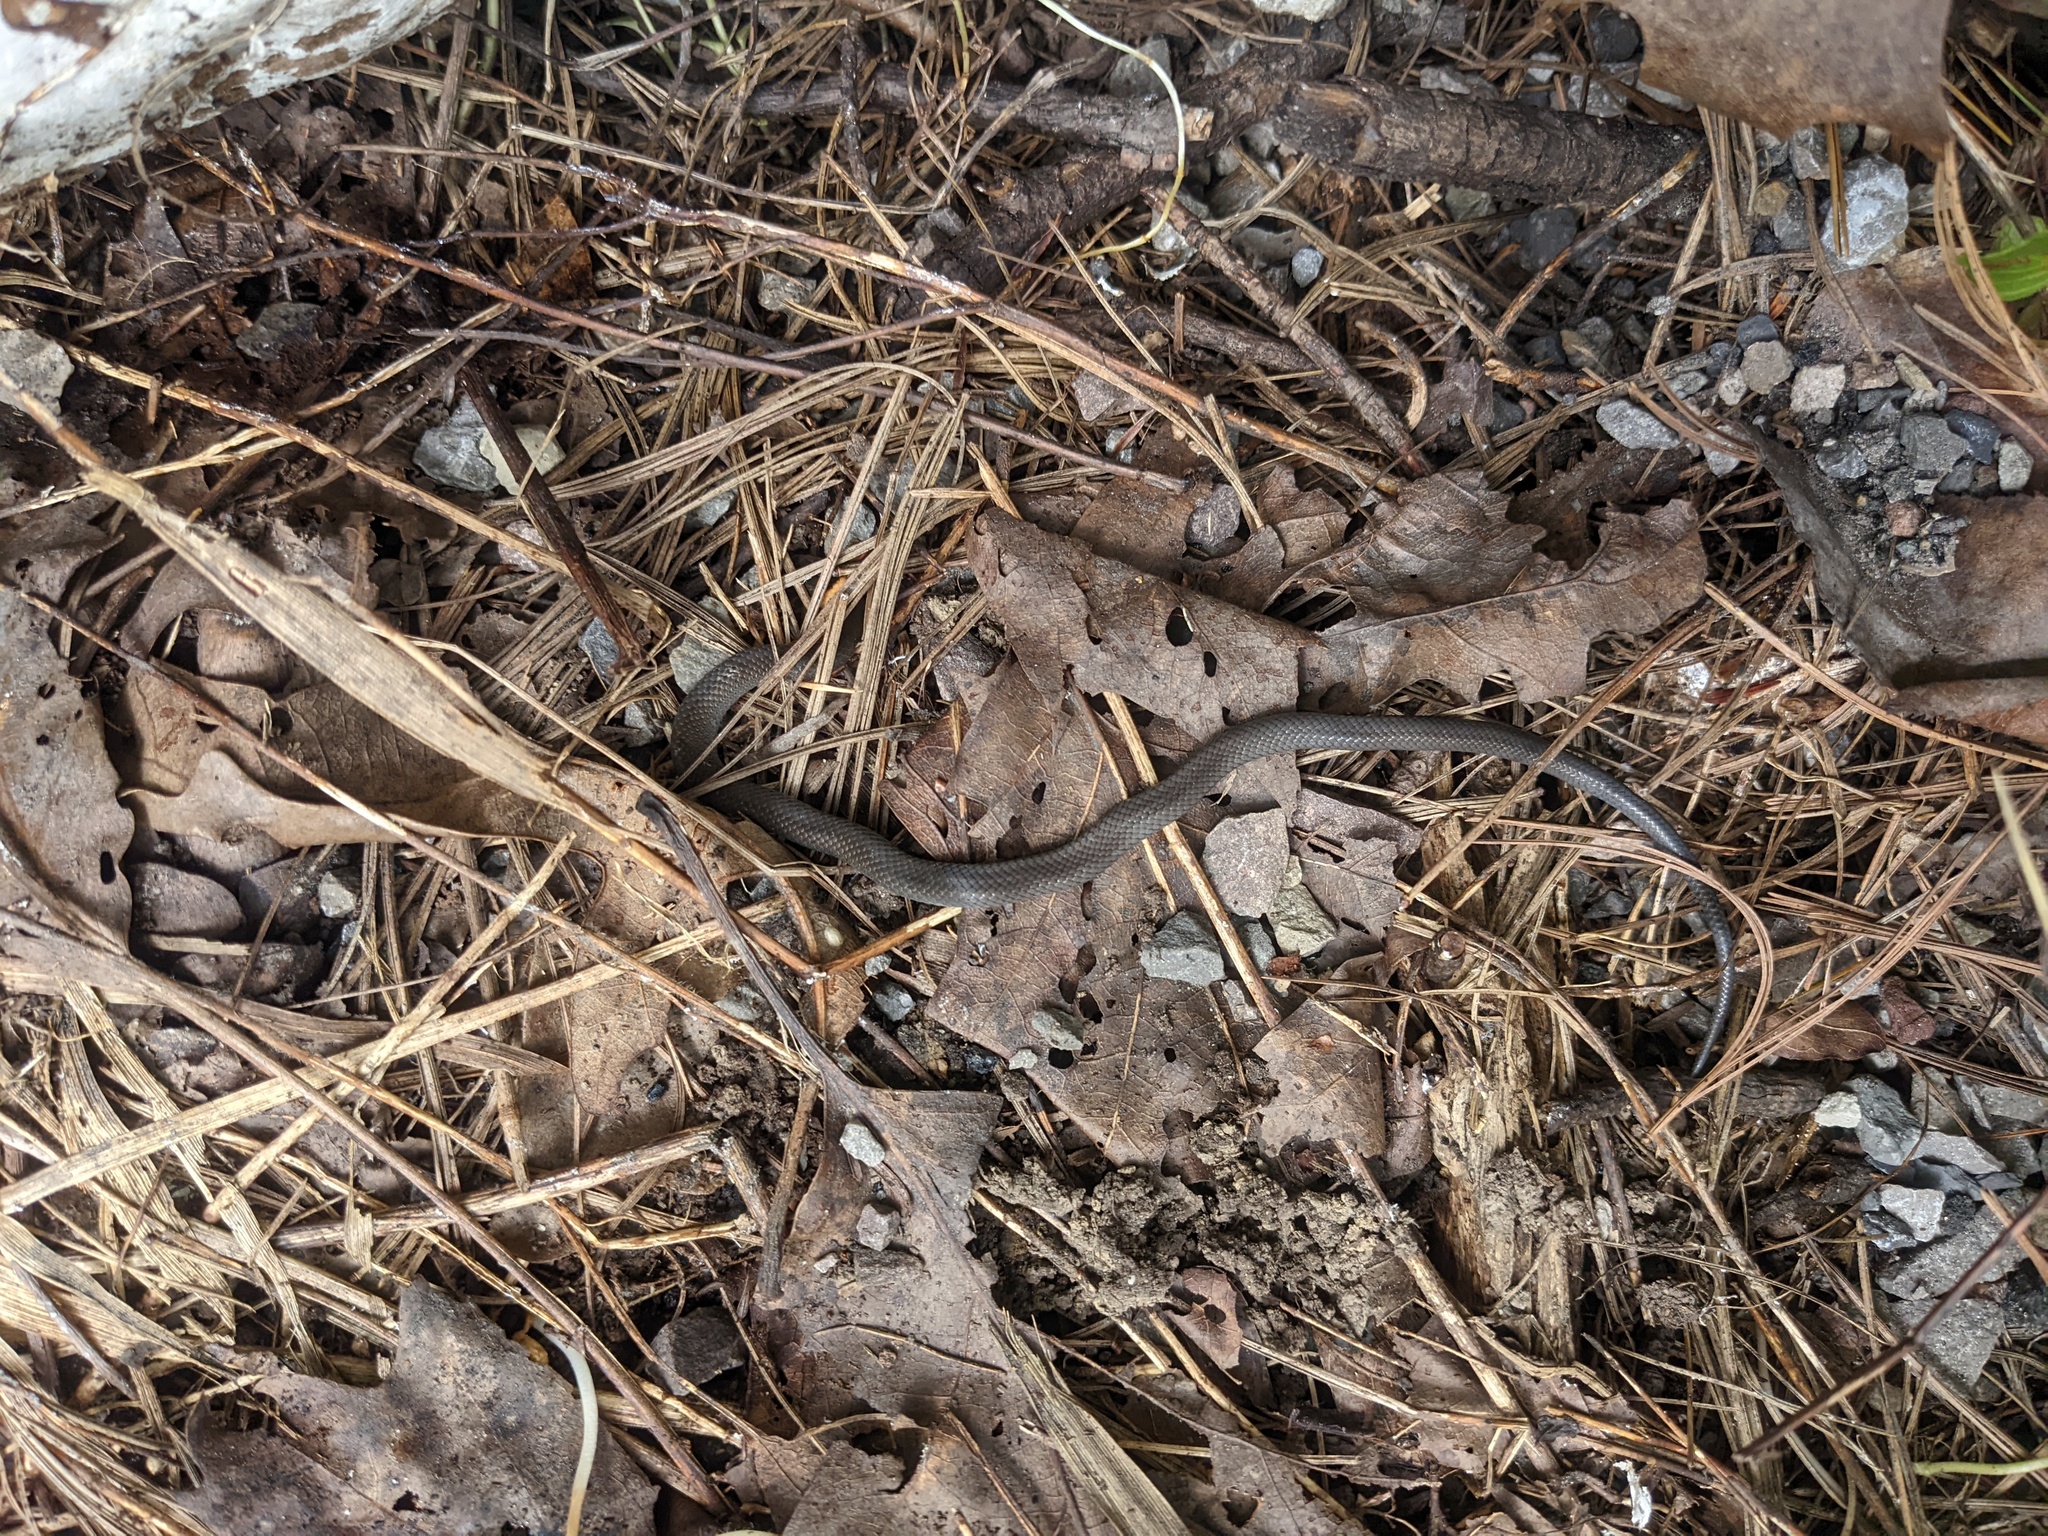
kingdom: Animalia
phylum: Chordata
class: Squamata
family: Colubridae
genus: Diadophis
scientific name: Diadophis punctatus
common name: Ringneck snake
